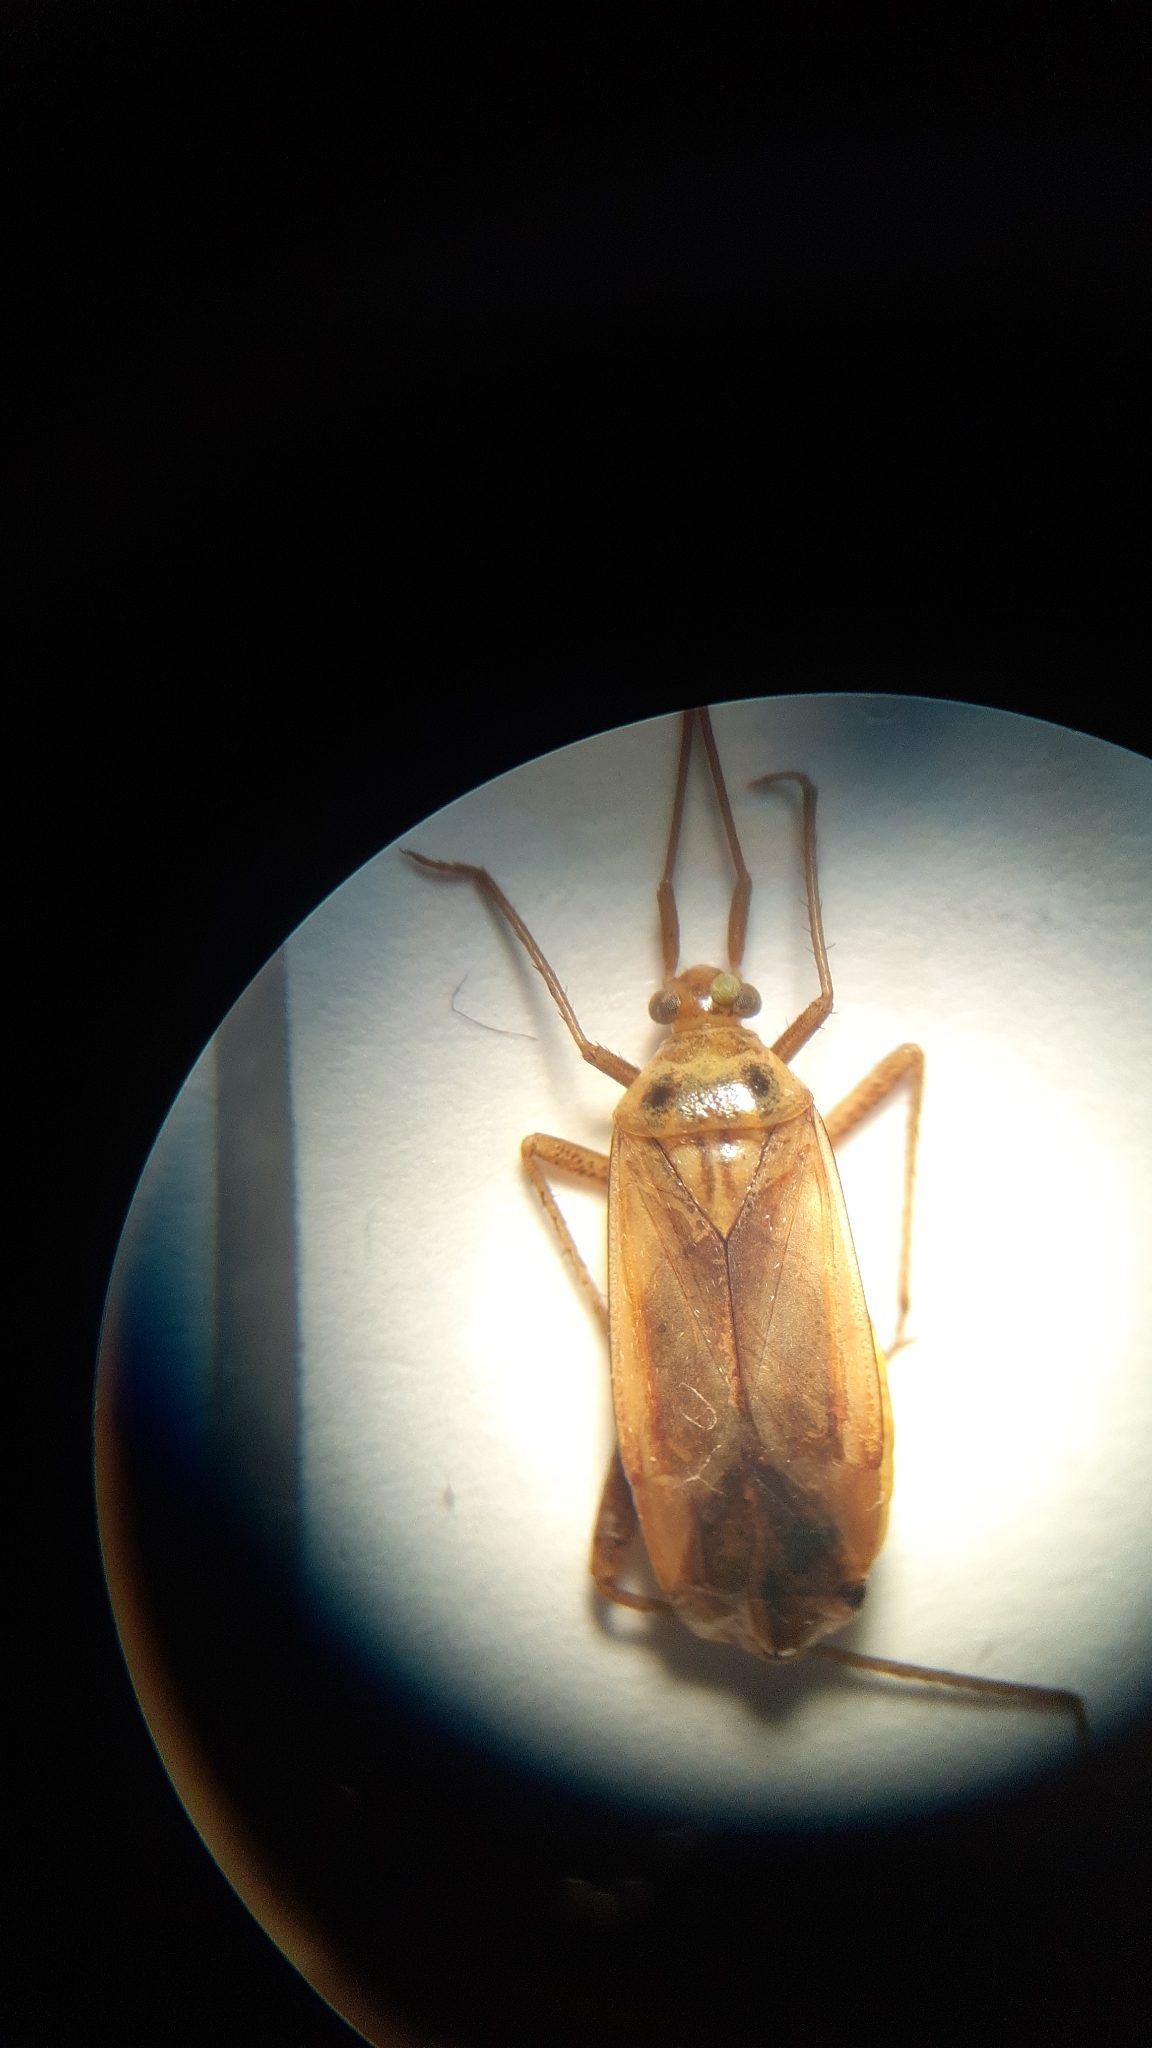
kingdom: Animalia
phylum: Arthropoda
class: Insecta
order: Hemiptera
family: Miridae
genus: Adelphocoris
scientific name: Adelphocoris lineolatus
